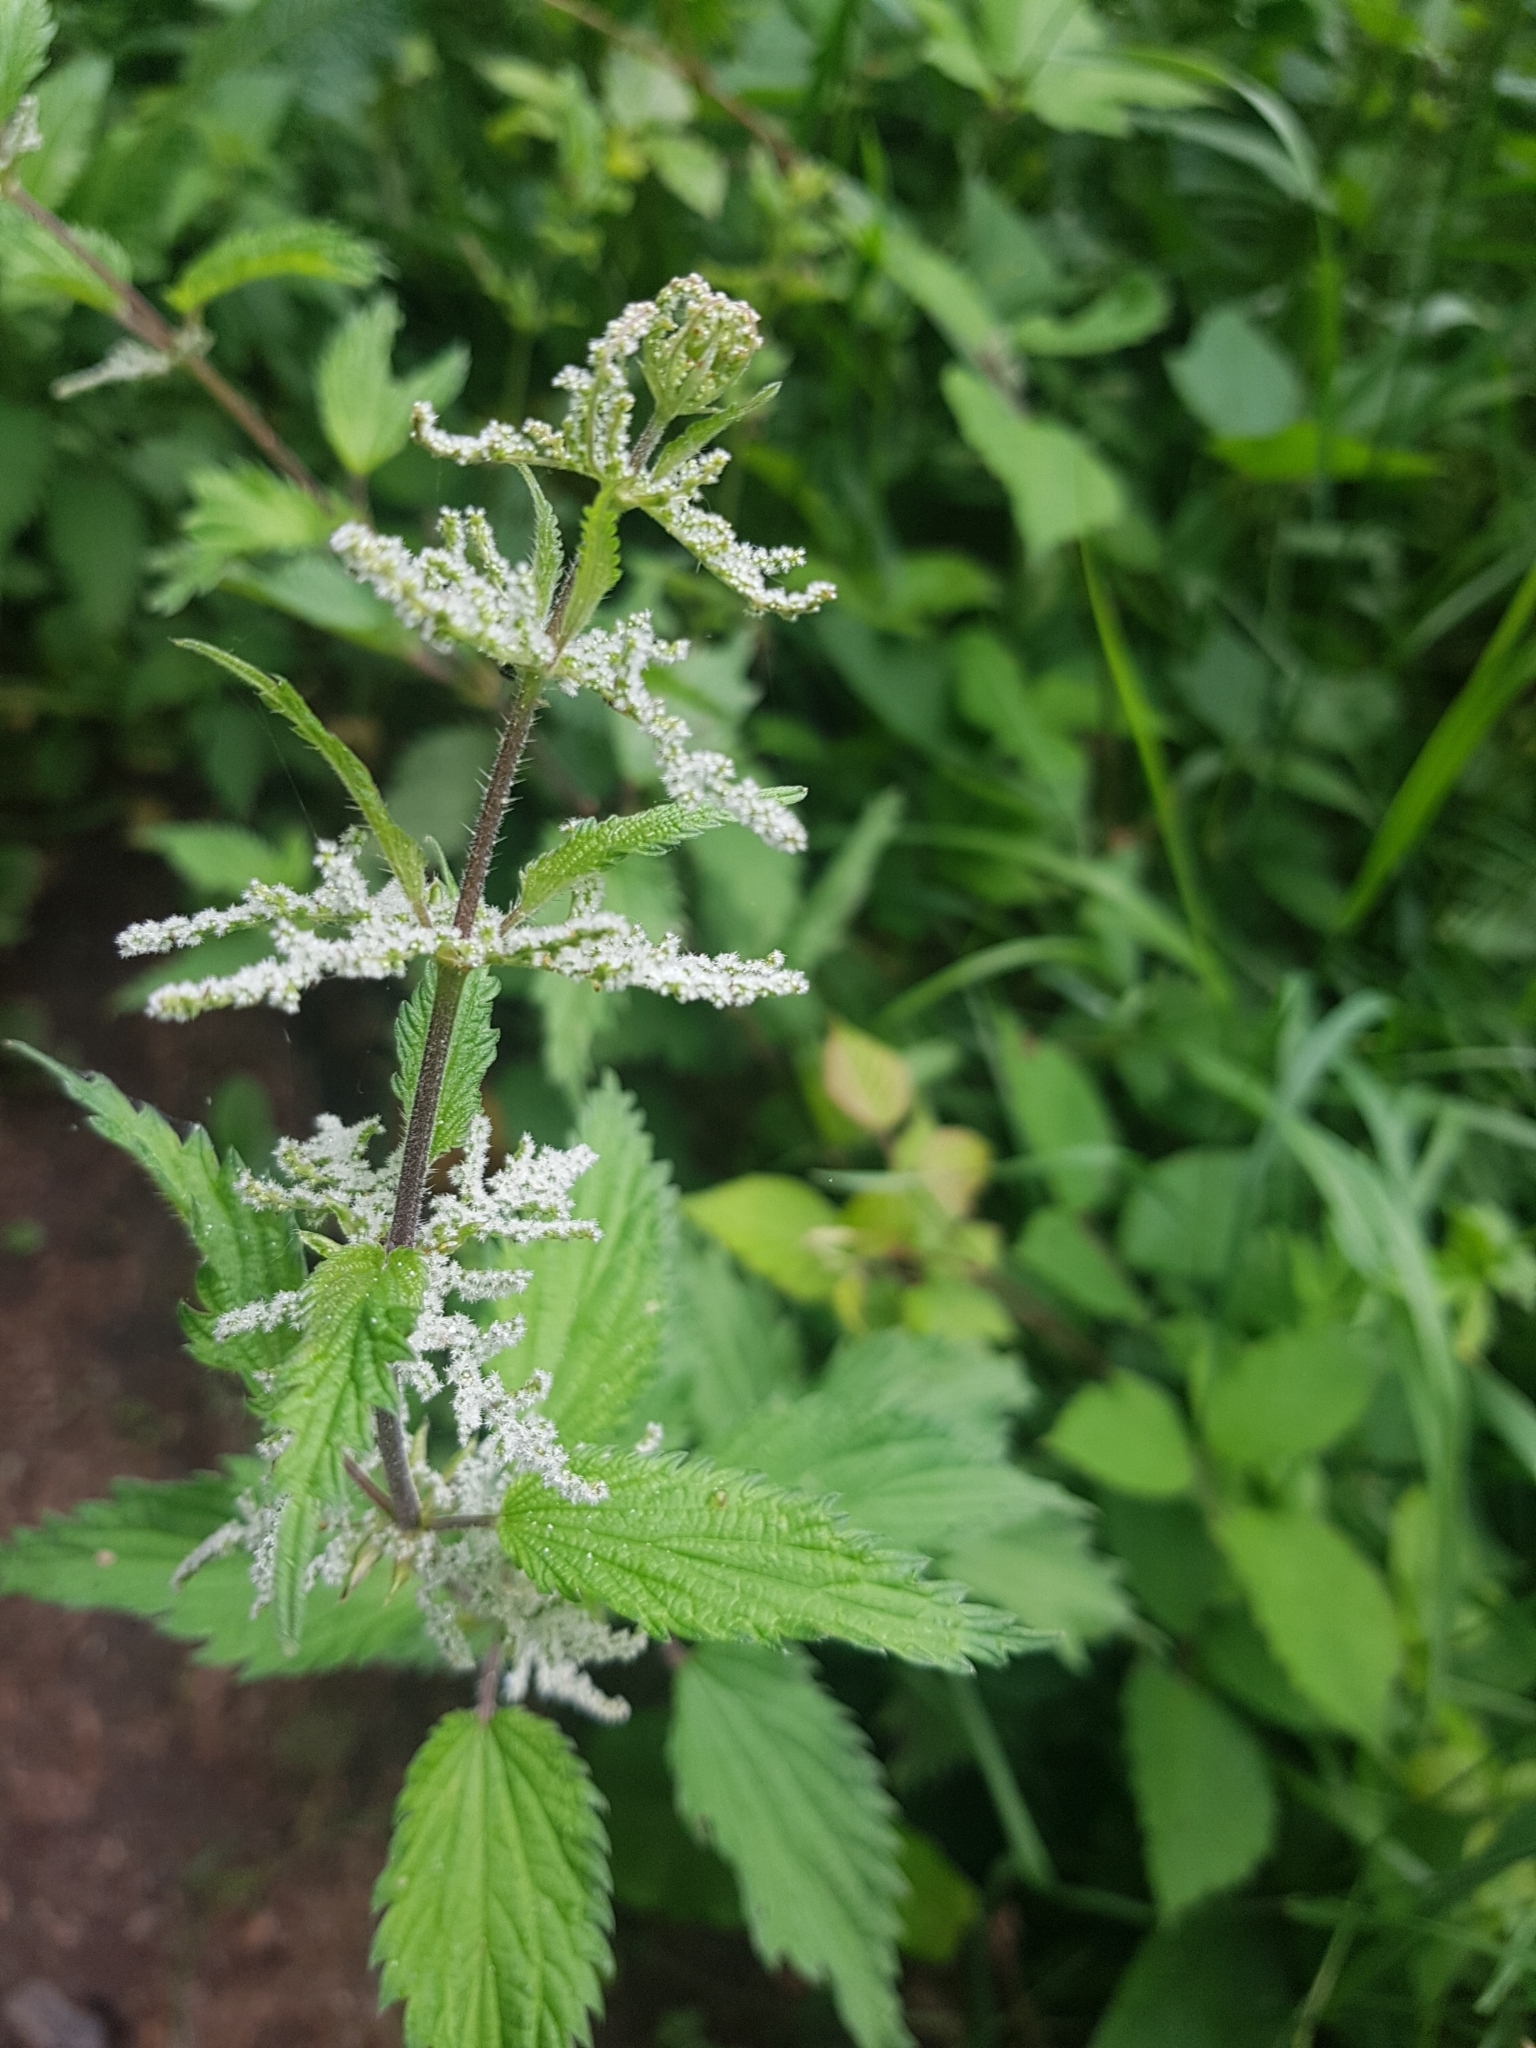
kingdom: Plantae
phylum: Tracheophyta
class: Magnoliopsida
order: Rosales
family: Urticaceae
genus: Urtica
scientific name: Urtica dioica
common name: Common nettle
